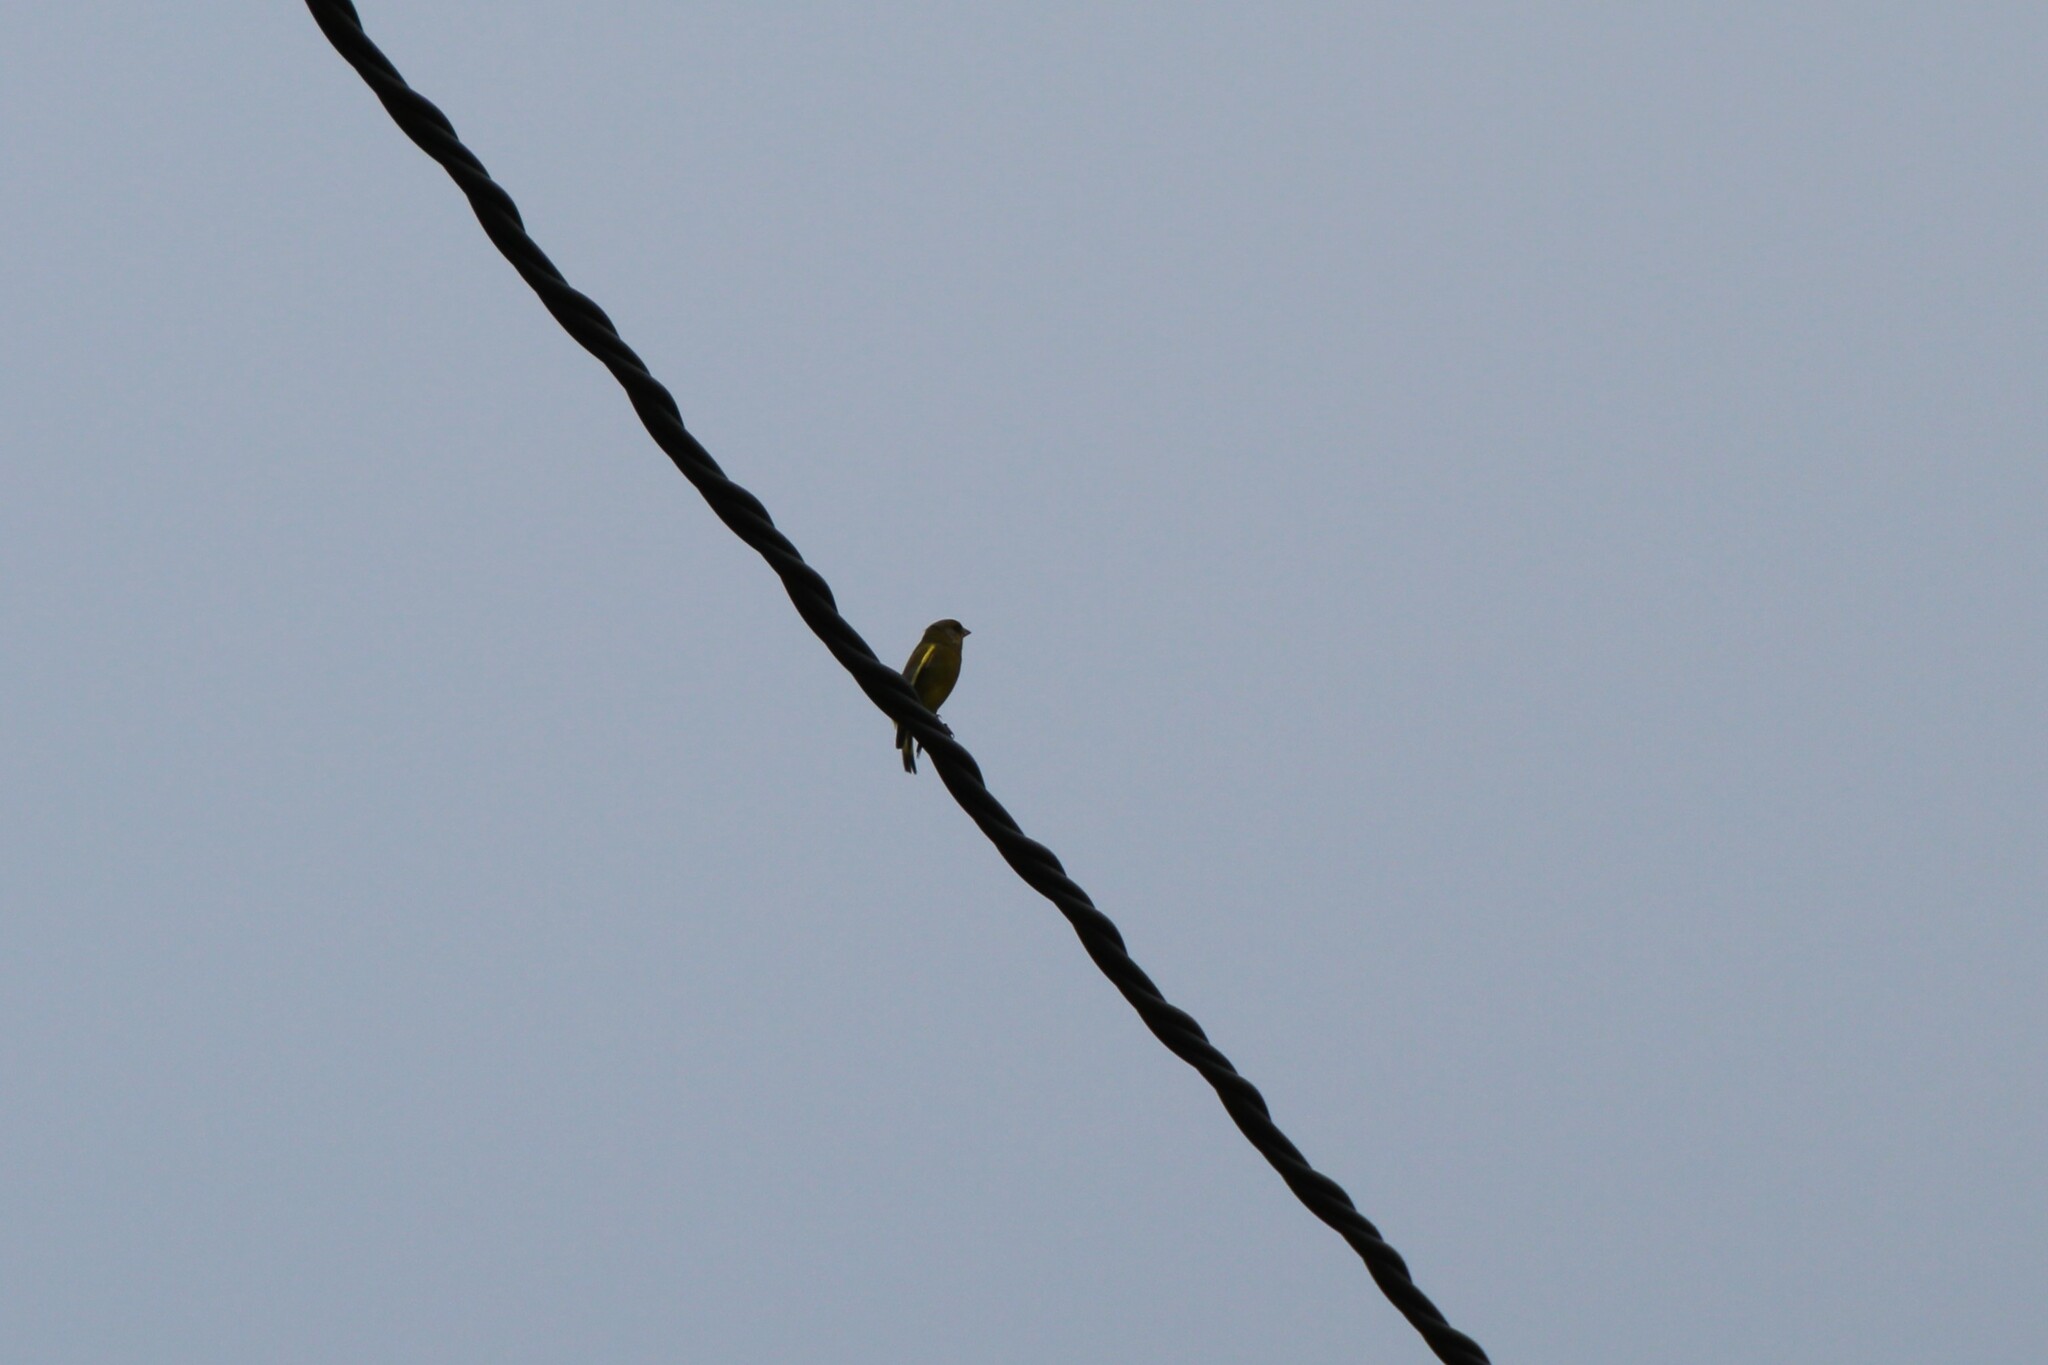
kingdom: Plantae
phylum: Tracheophyta
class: Liliopsida
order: Poales
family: Poaceae
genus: Chloris
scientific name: Chloris chloris
